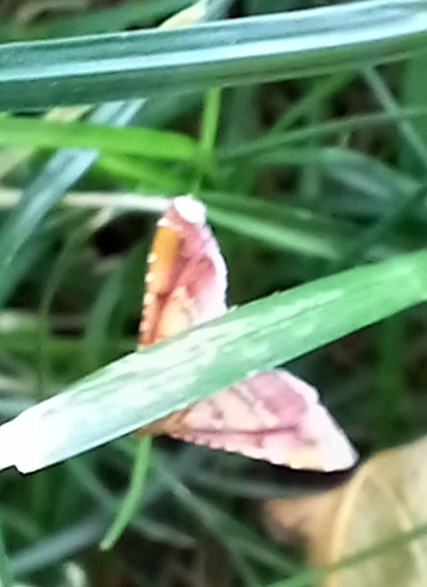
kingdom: Animalia
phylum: Arthropoda
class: Insecta
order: Lepidoptera
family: Pyralidae
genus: Endotricha
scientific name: Endotricha flammealis
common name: Rosy tabby
